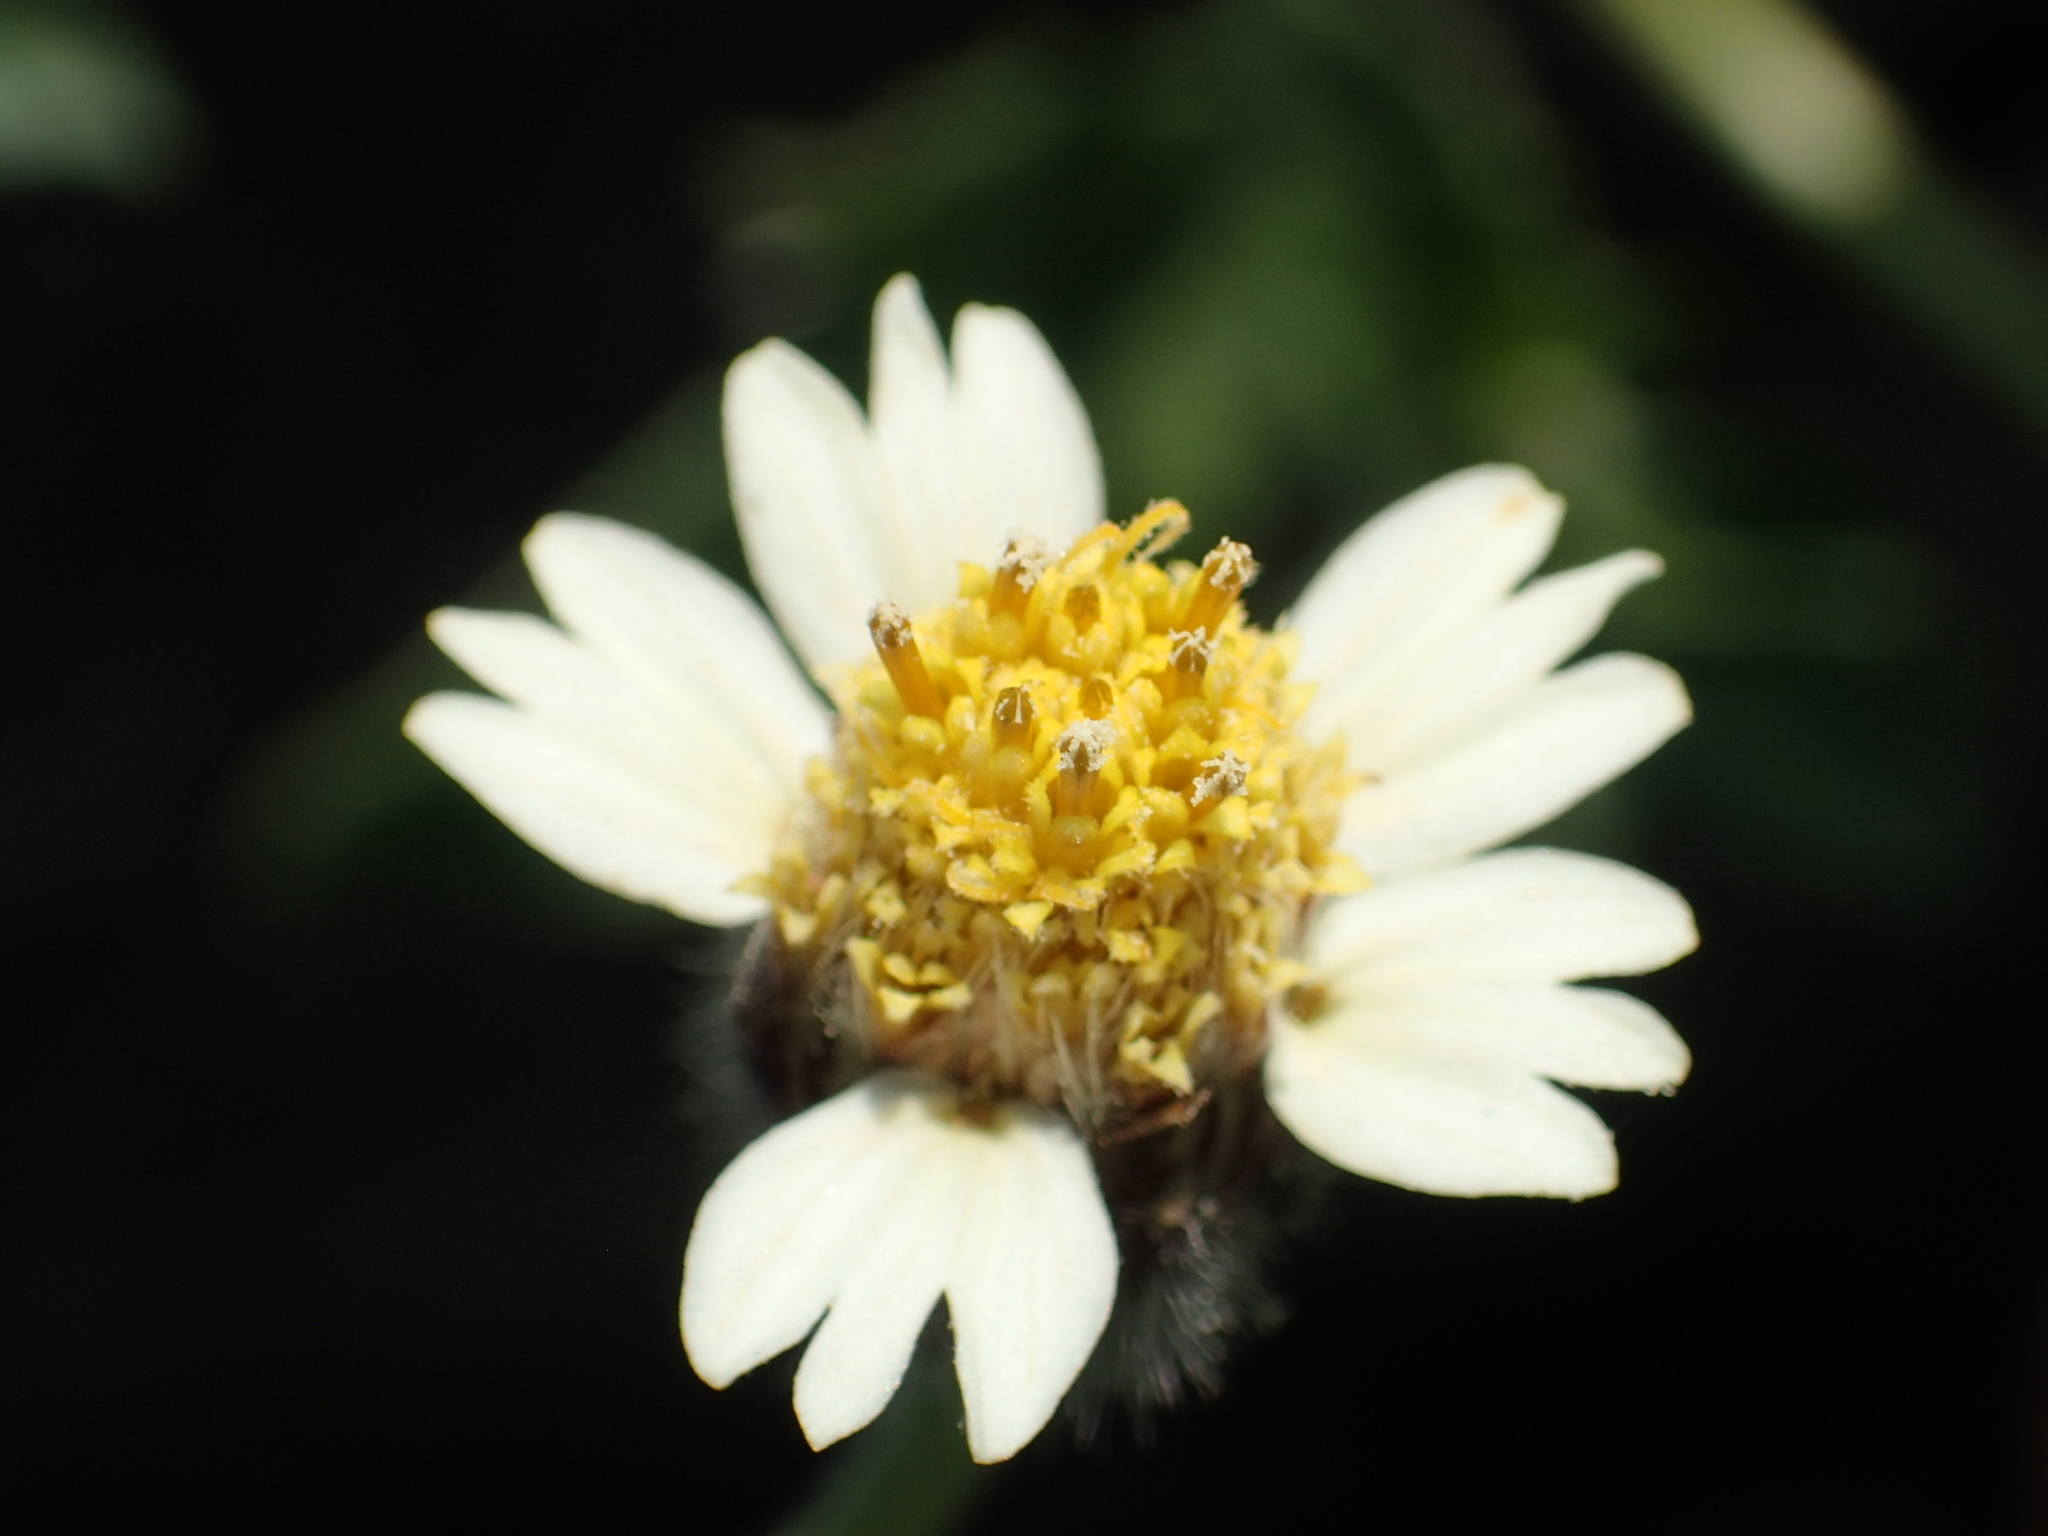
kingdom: Plantae
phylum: Tracheophyta
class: Magnoliopsida
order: Asterales
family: Asteraceae
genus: Tridax
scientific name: Tridax procumbens
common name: Coatbuttons
